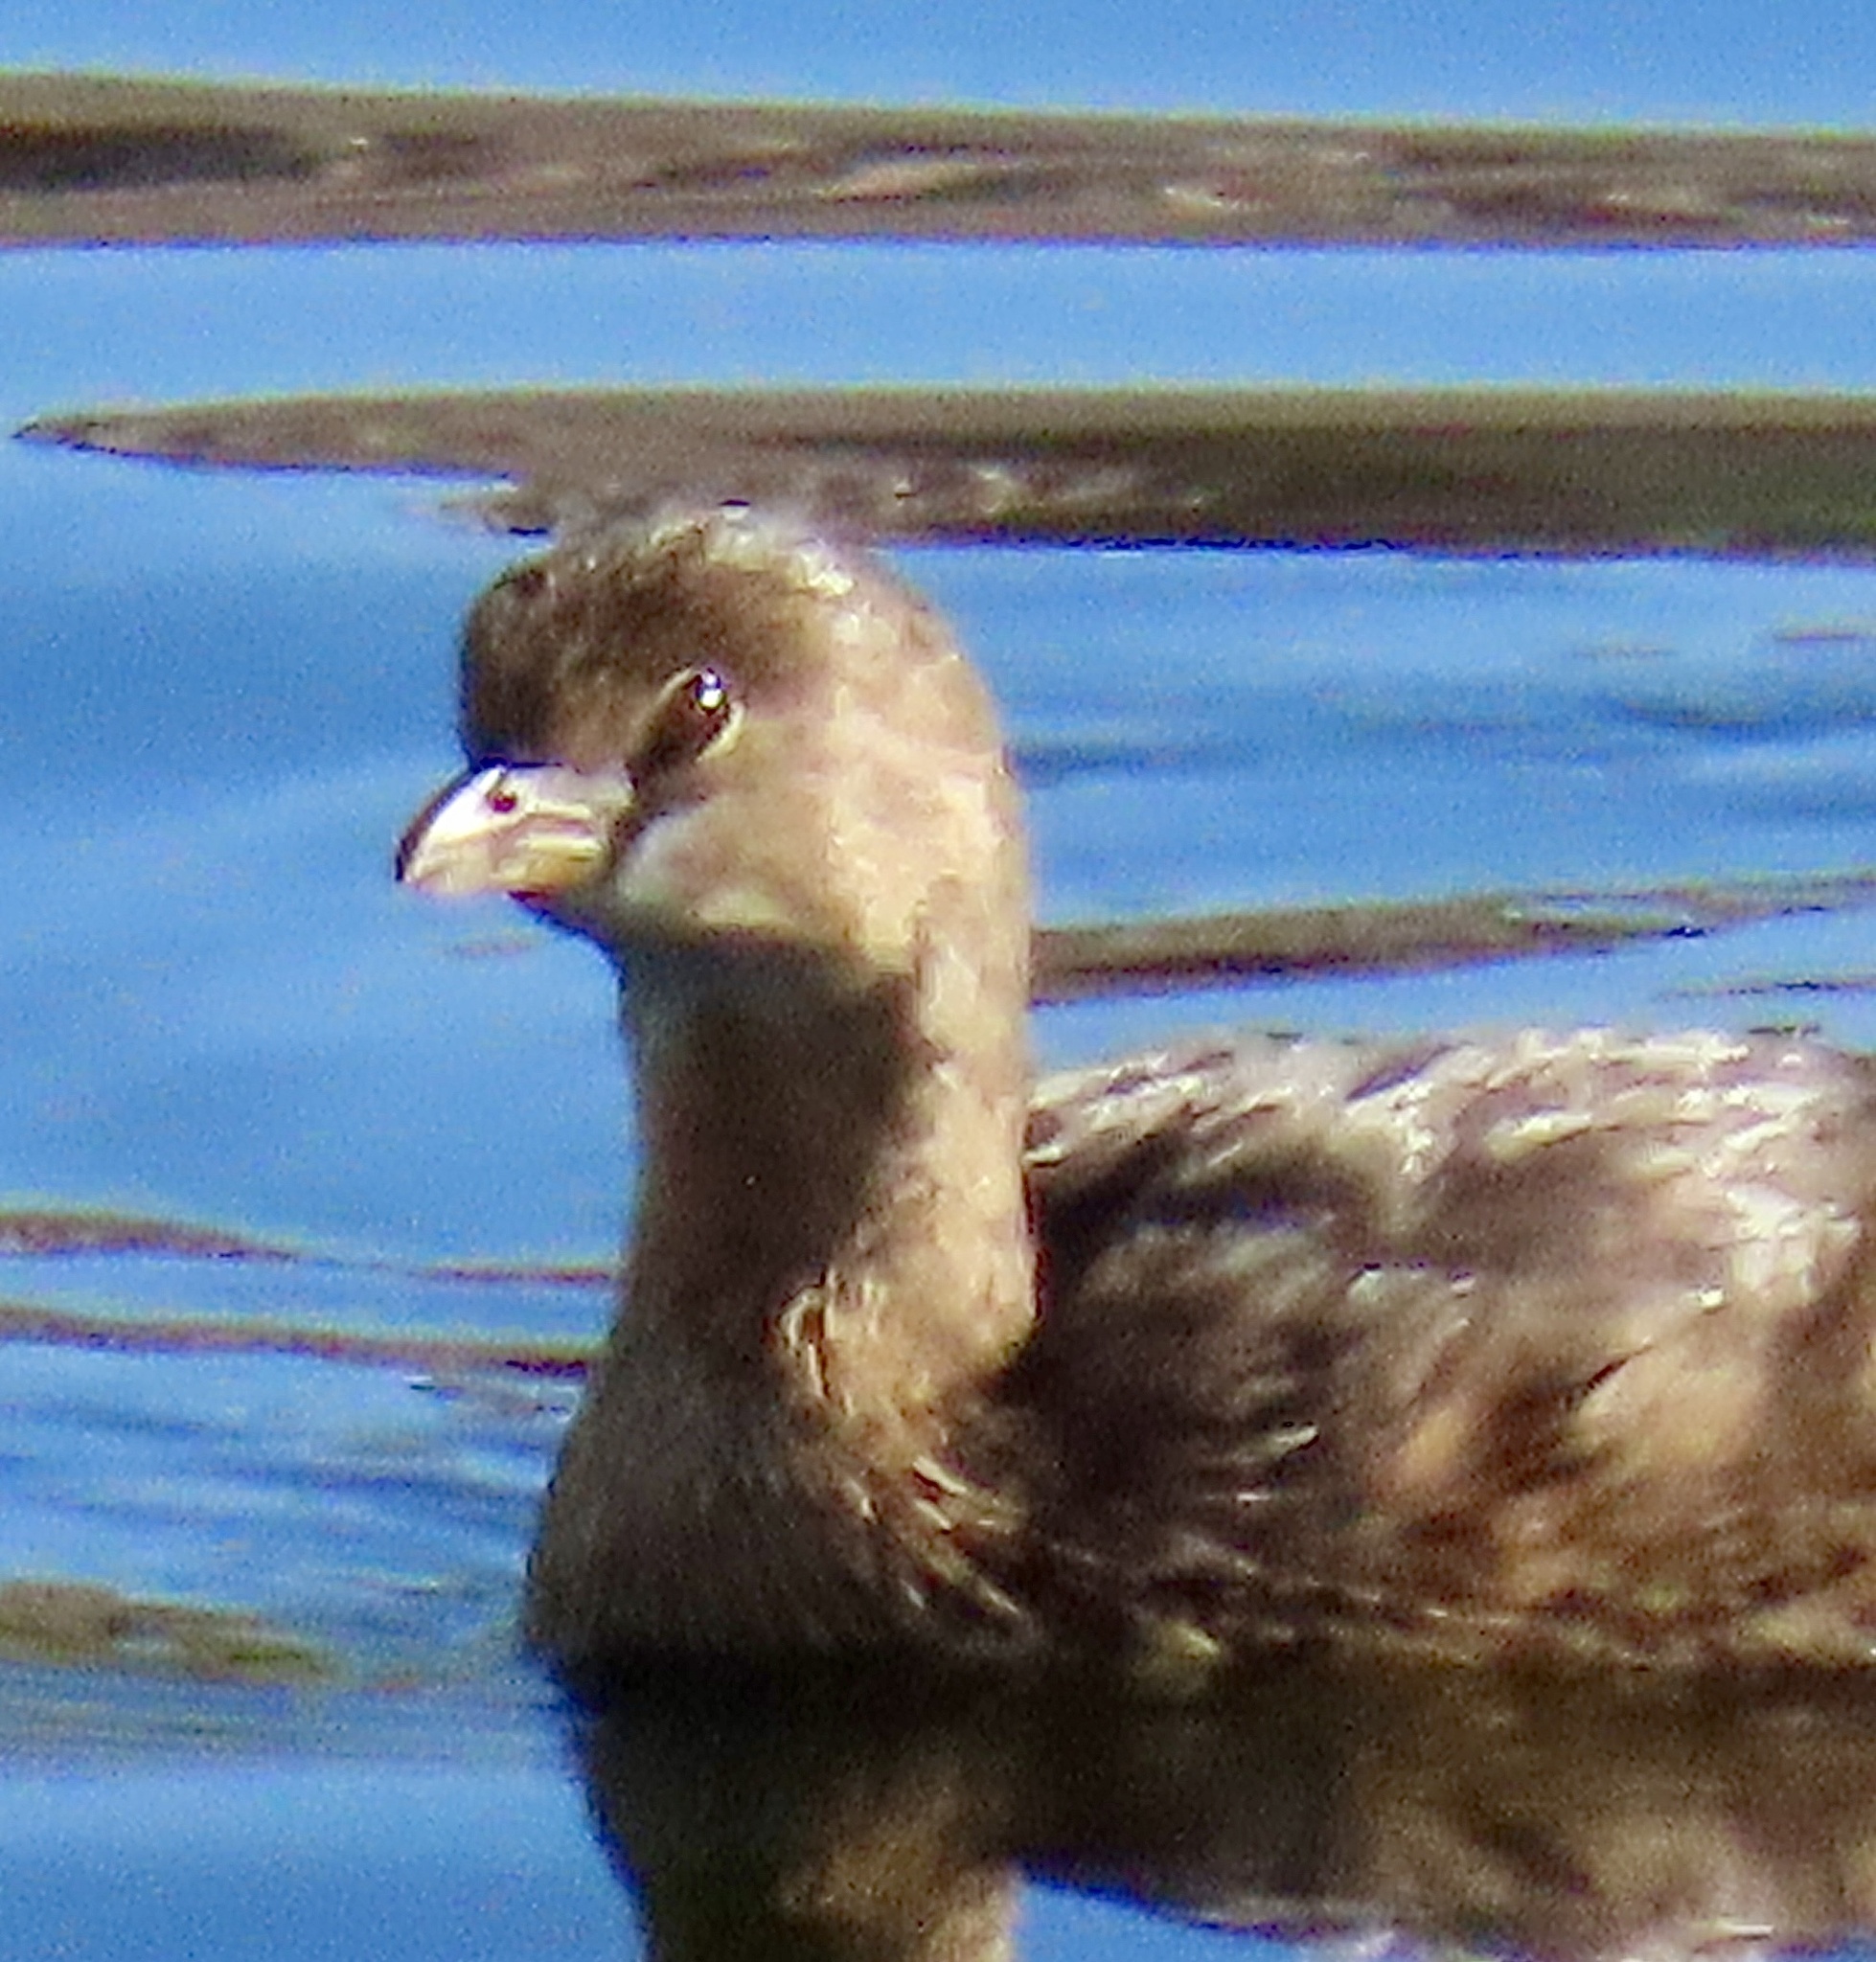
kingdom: Animalia
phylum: Chordata
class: Aves
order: Podicipediformes
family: Podicipedidae
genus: Podilymbus
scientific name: Podilymbus podiceps
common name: Pied-billed grebe
